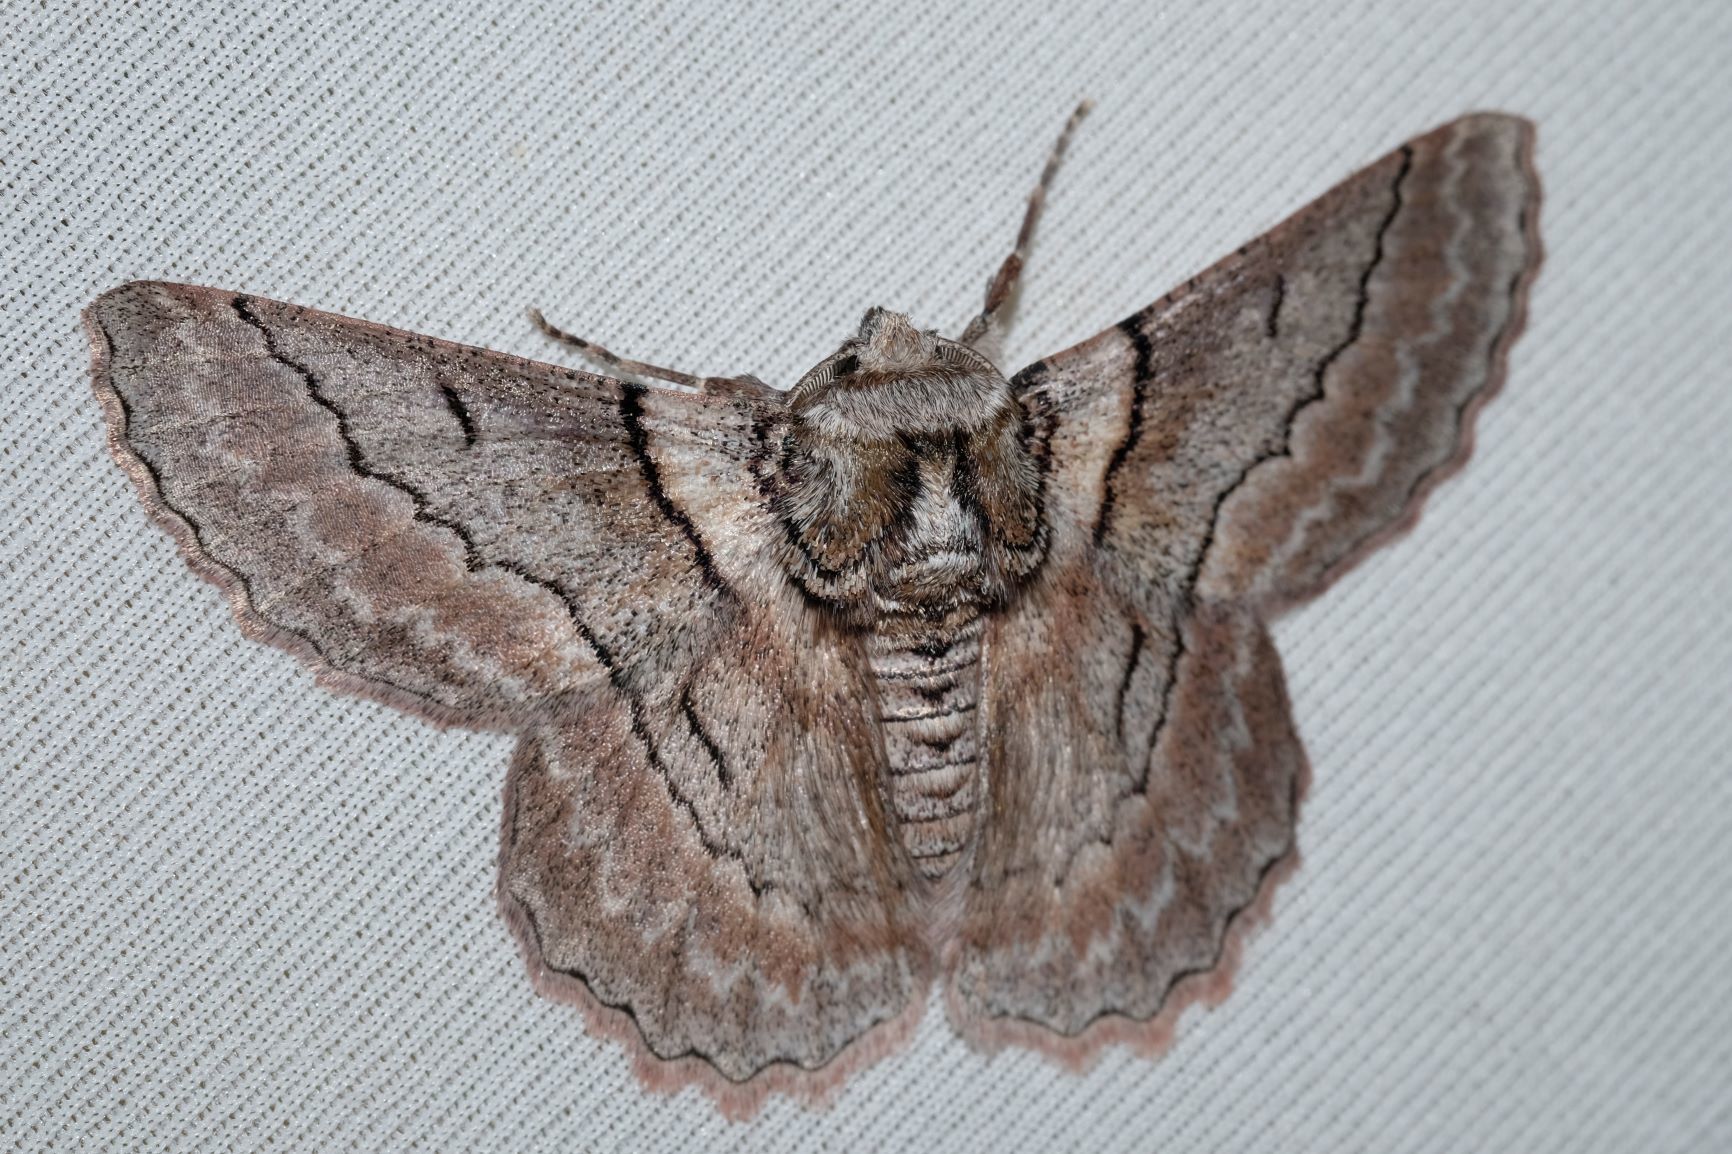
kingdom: Animalia
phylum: Arthropoda
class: Insecta
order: Lepidoptera
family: Geometridae
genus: Hypobapta
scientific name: Hypobapta tachyhalotaria
